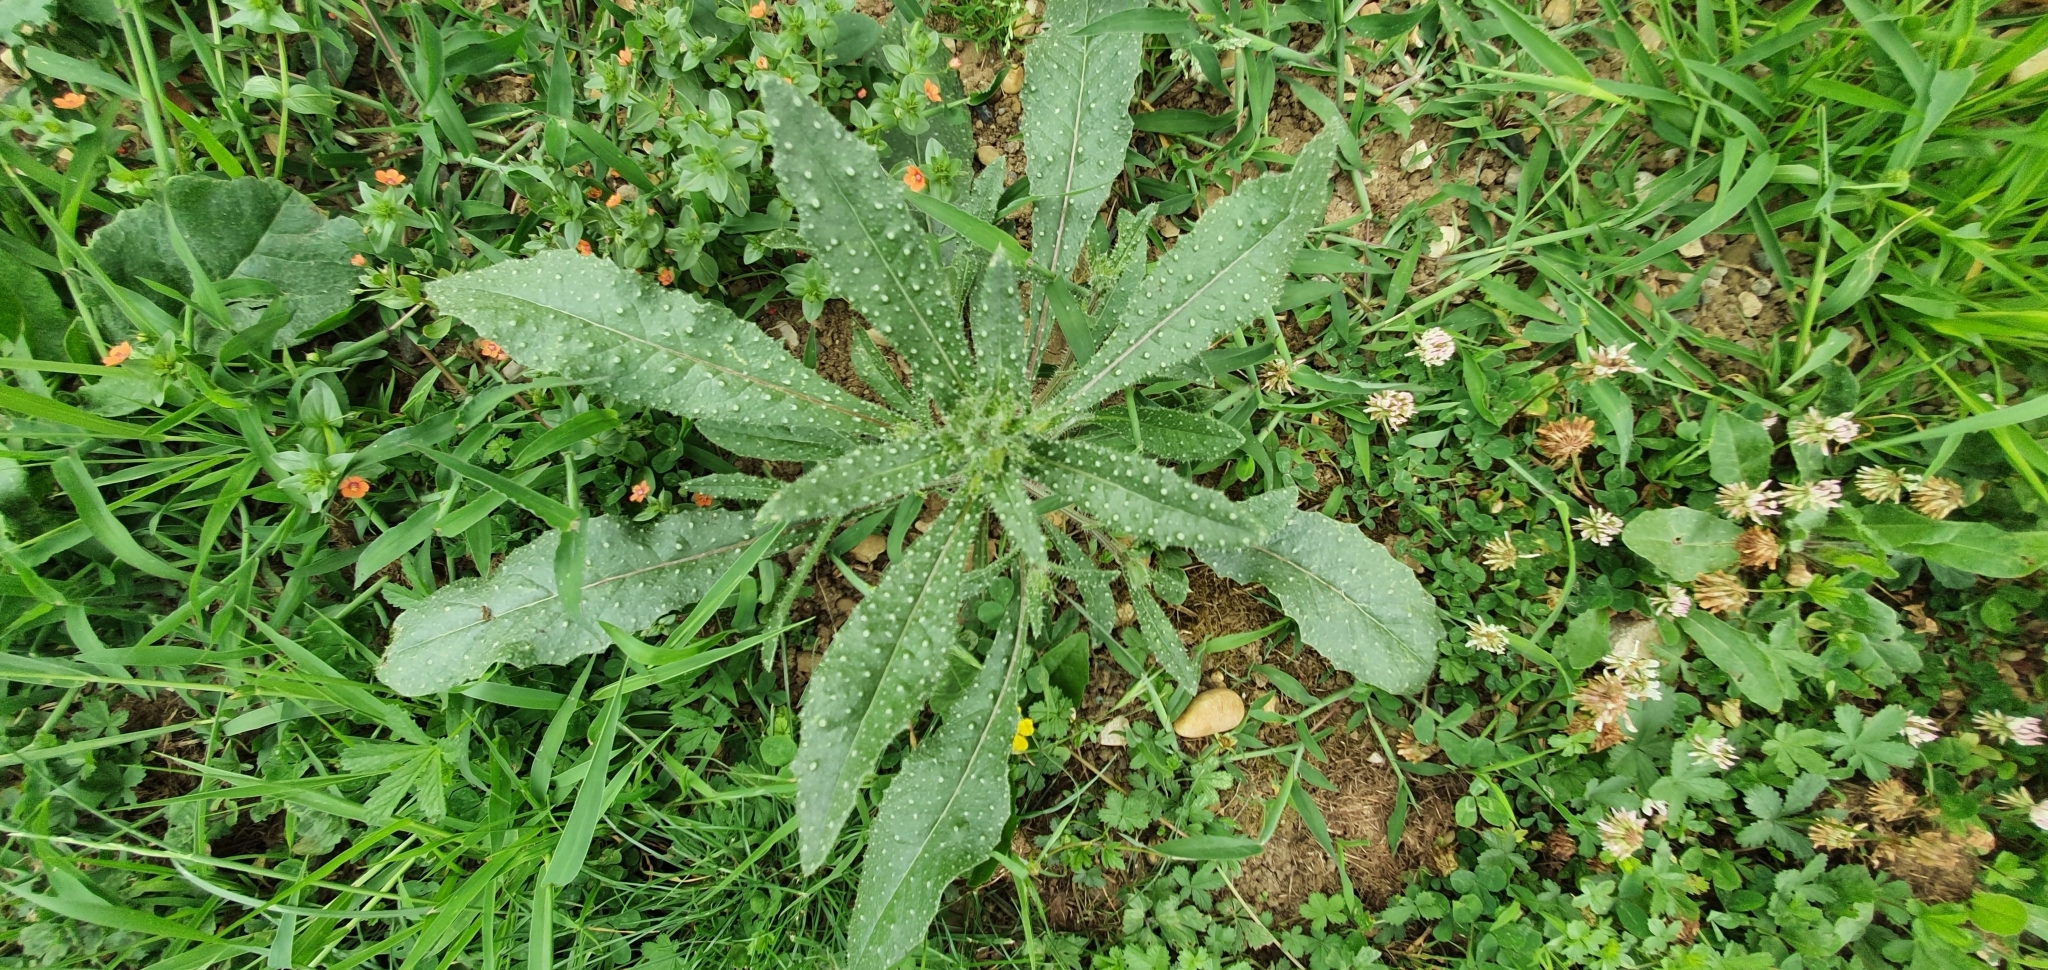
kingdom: Plantae
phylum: Tracheophyta
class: Magnoliopsida
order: Asterales
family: Asteraceae
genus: Helminthotheca
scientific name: Helminthotheca echioides
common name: Ox-tongue
